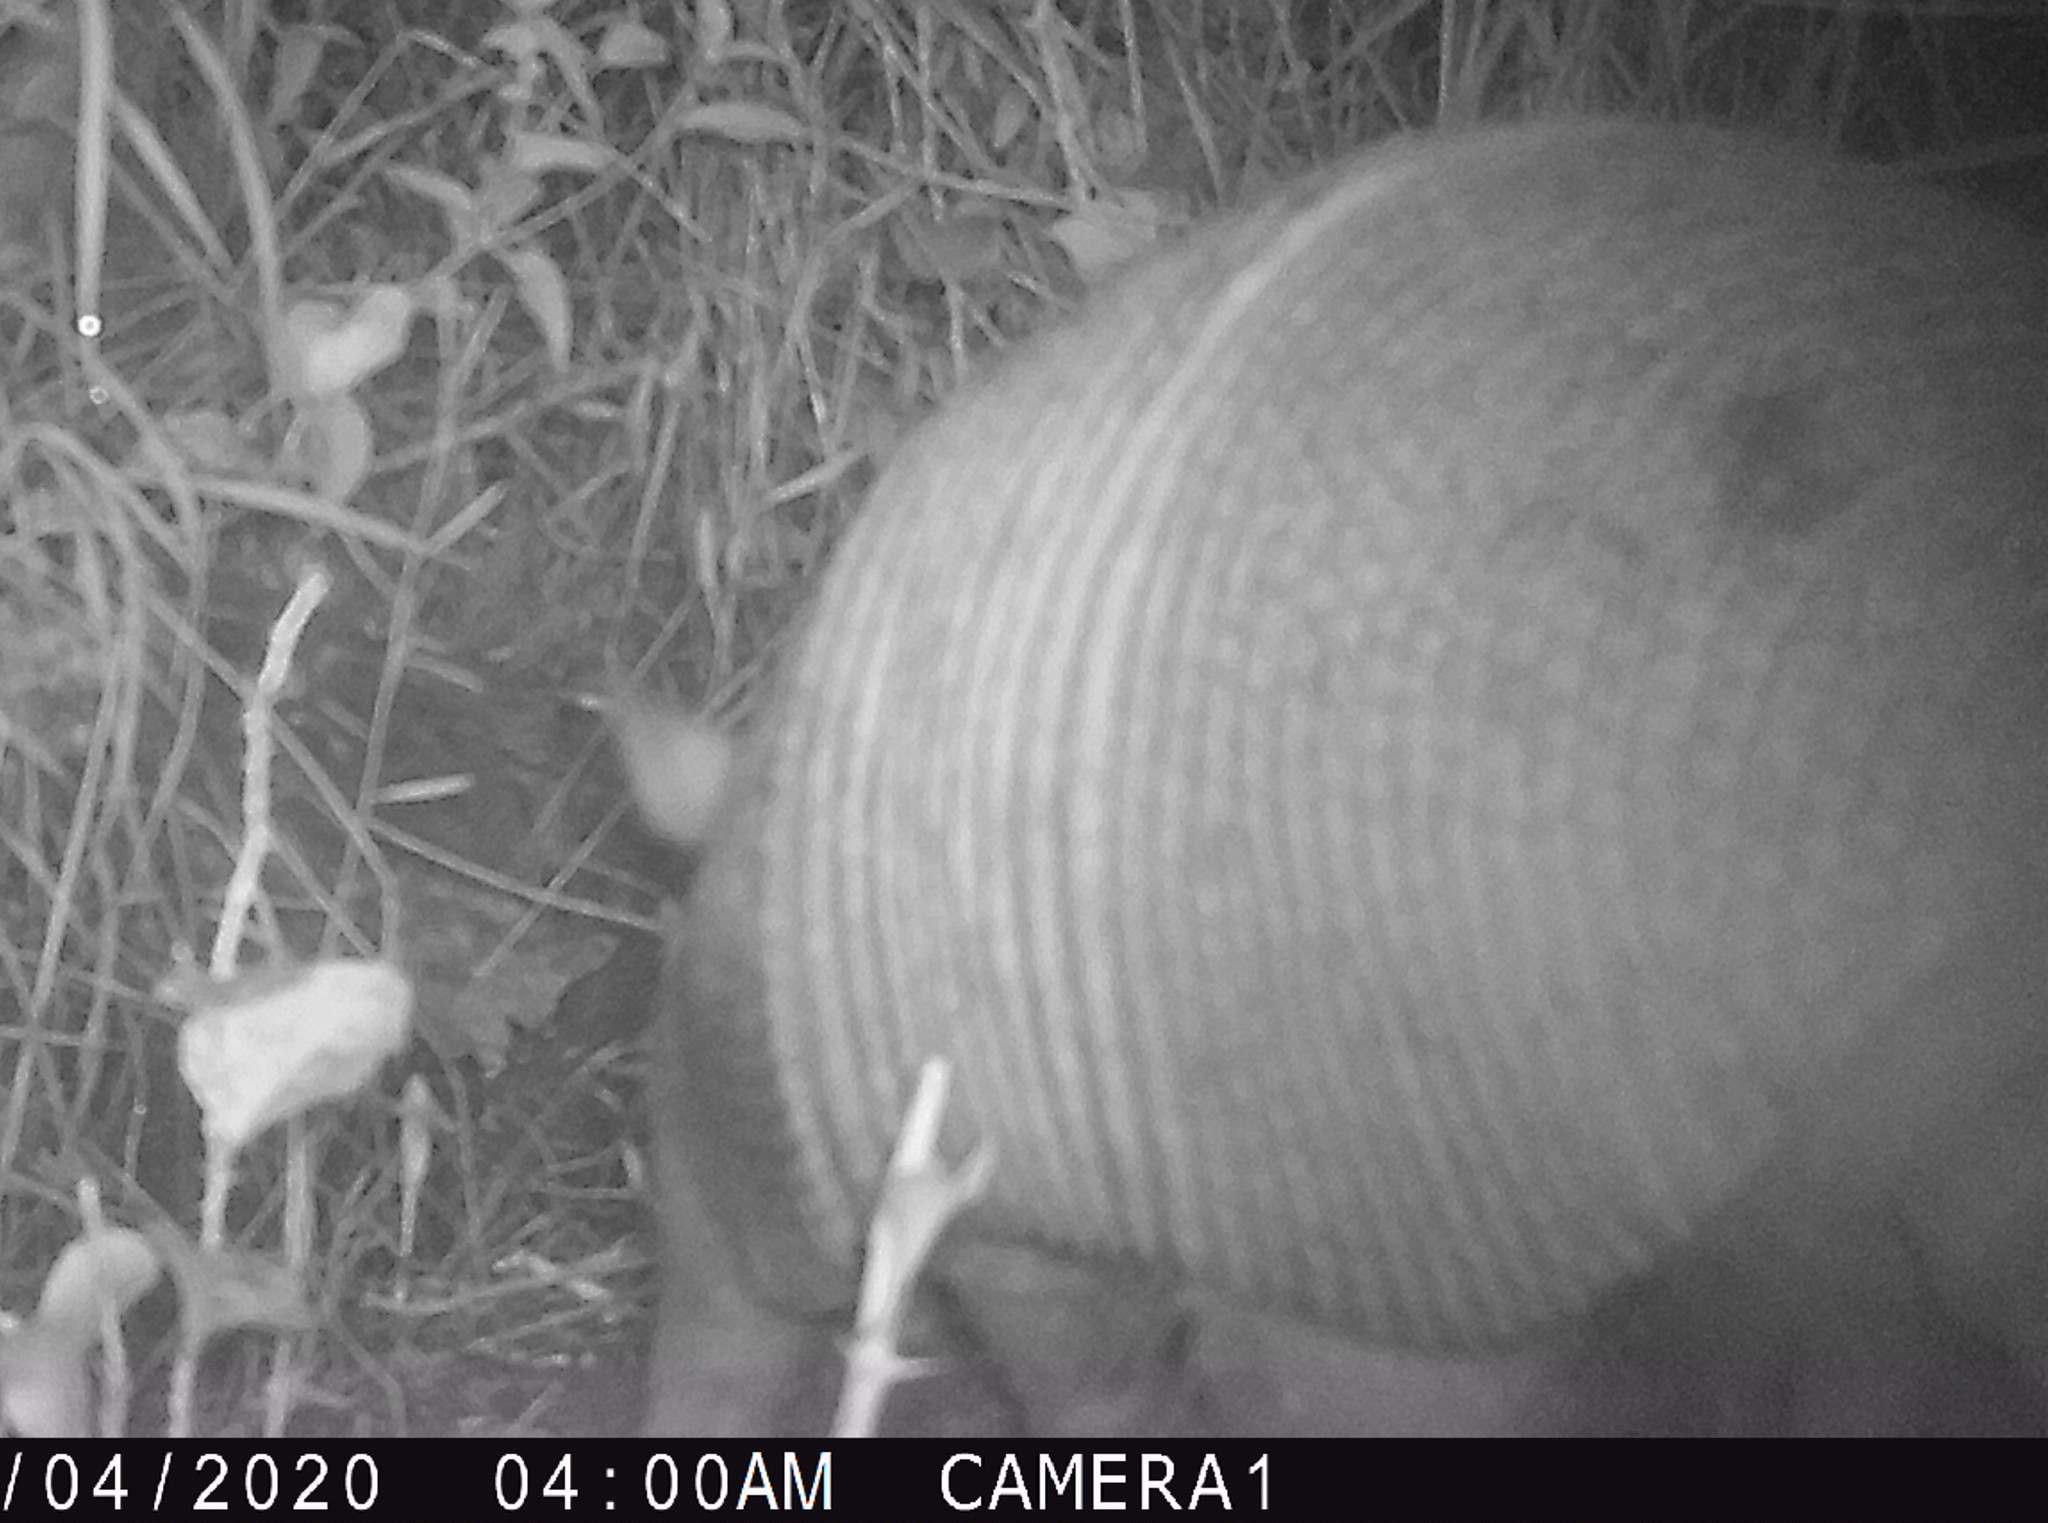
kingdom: Animalia
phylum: Chordata
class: Mammalia
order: Cingulata
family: Dasypodidae
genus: Dasypus
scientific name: Dasypus novemcinctus
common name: Nine-banded armadillo
